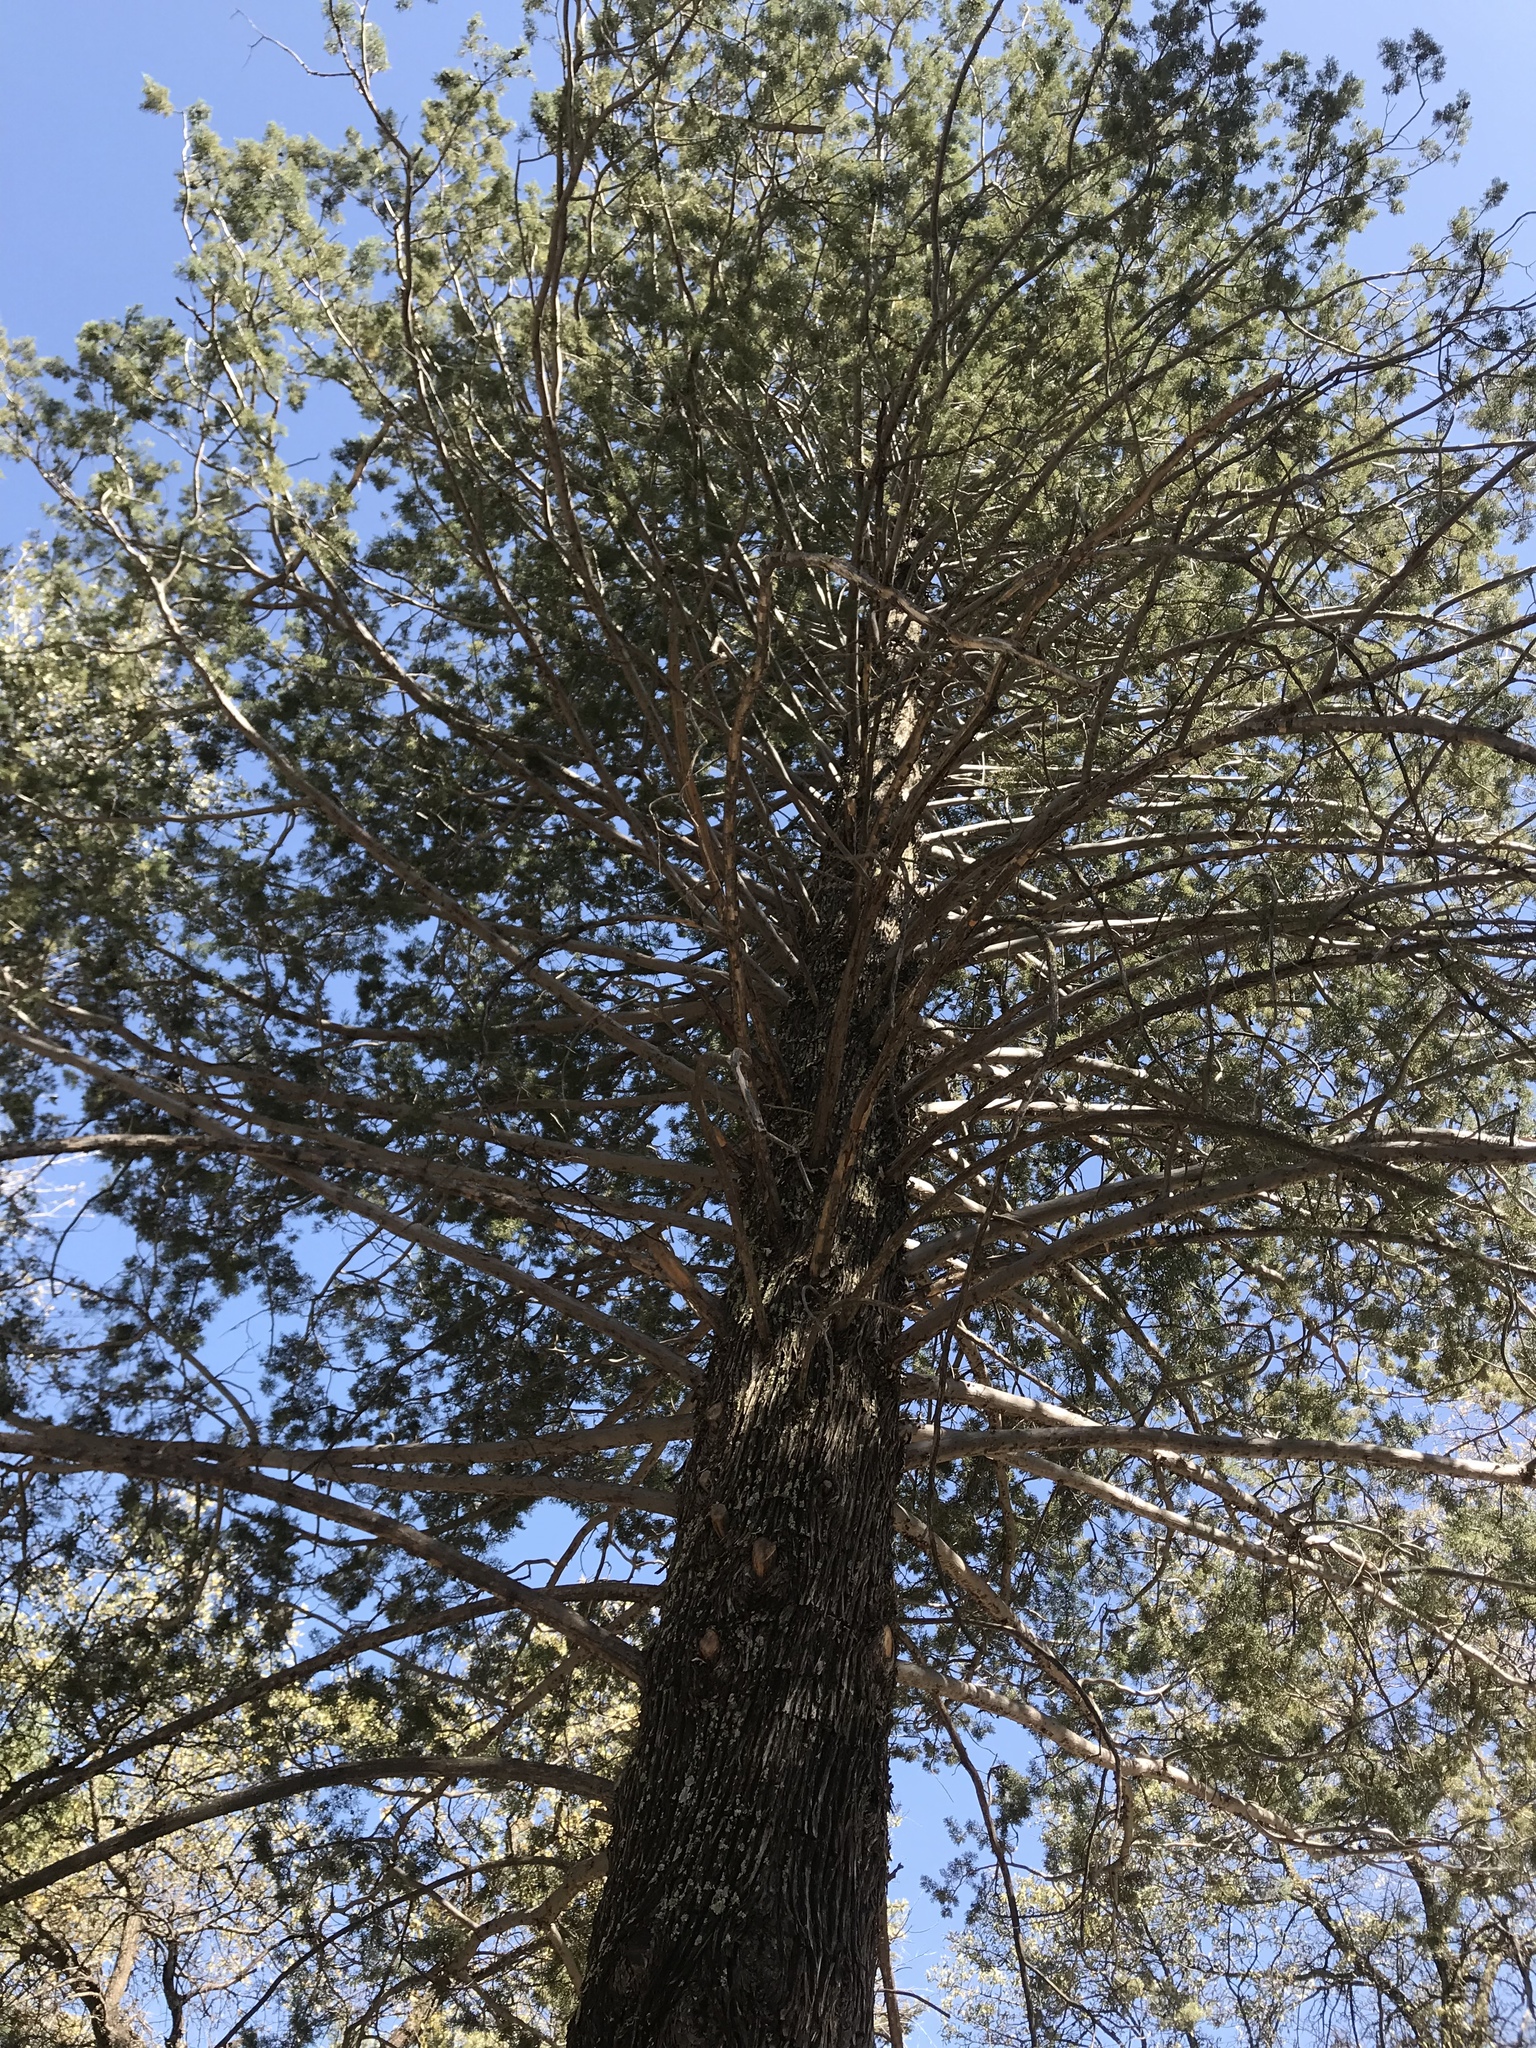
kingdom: Plantae
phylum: Tracheophyta
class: Pinopsida
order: Pinales
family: Cupressaceae
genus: Cupressus
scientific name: Cupressus arizonica
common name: Arizona cypress
